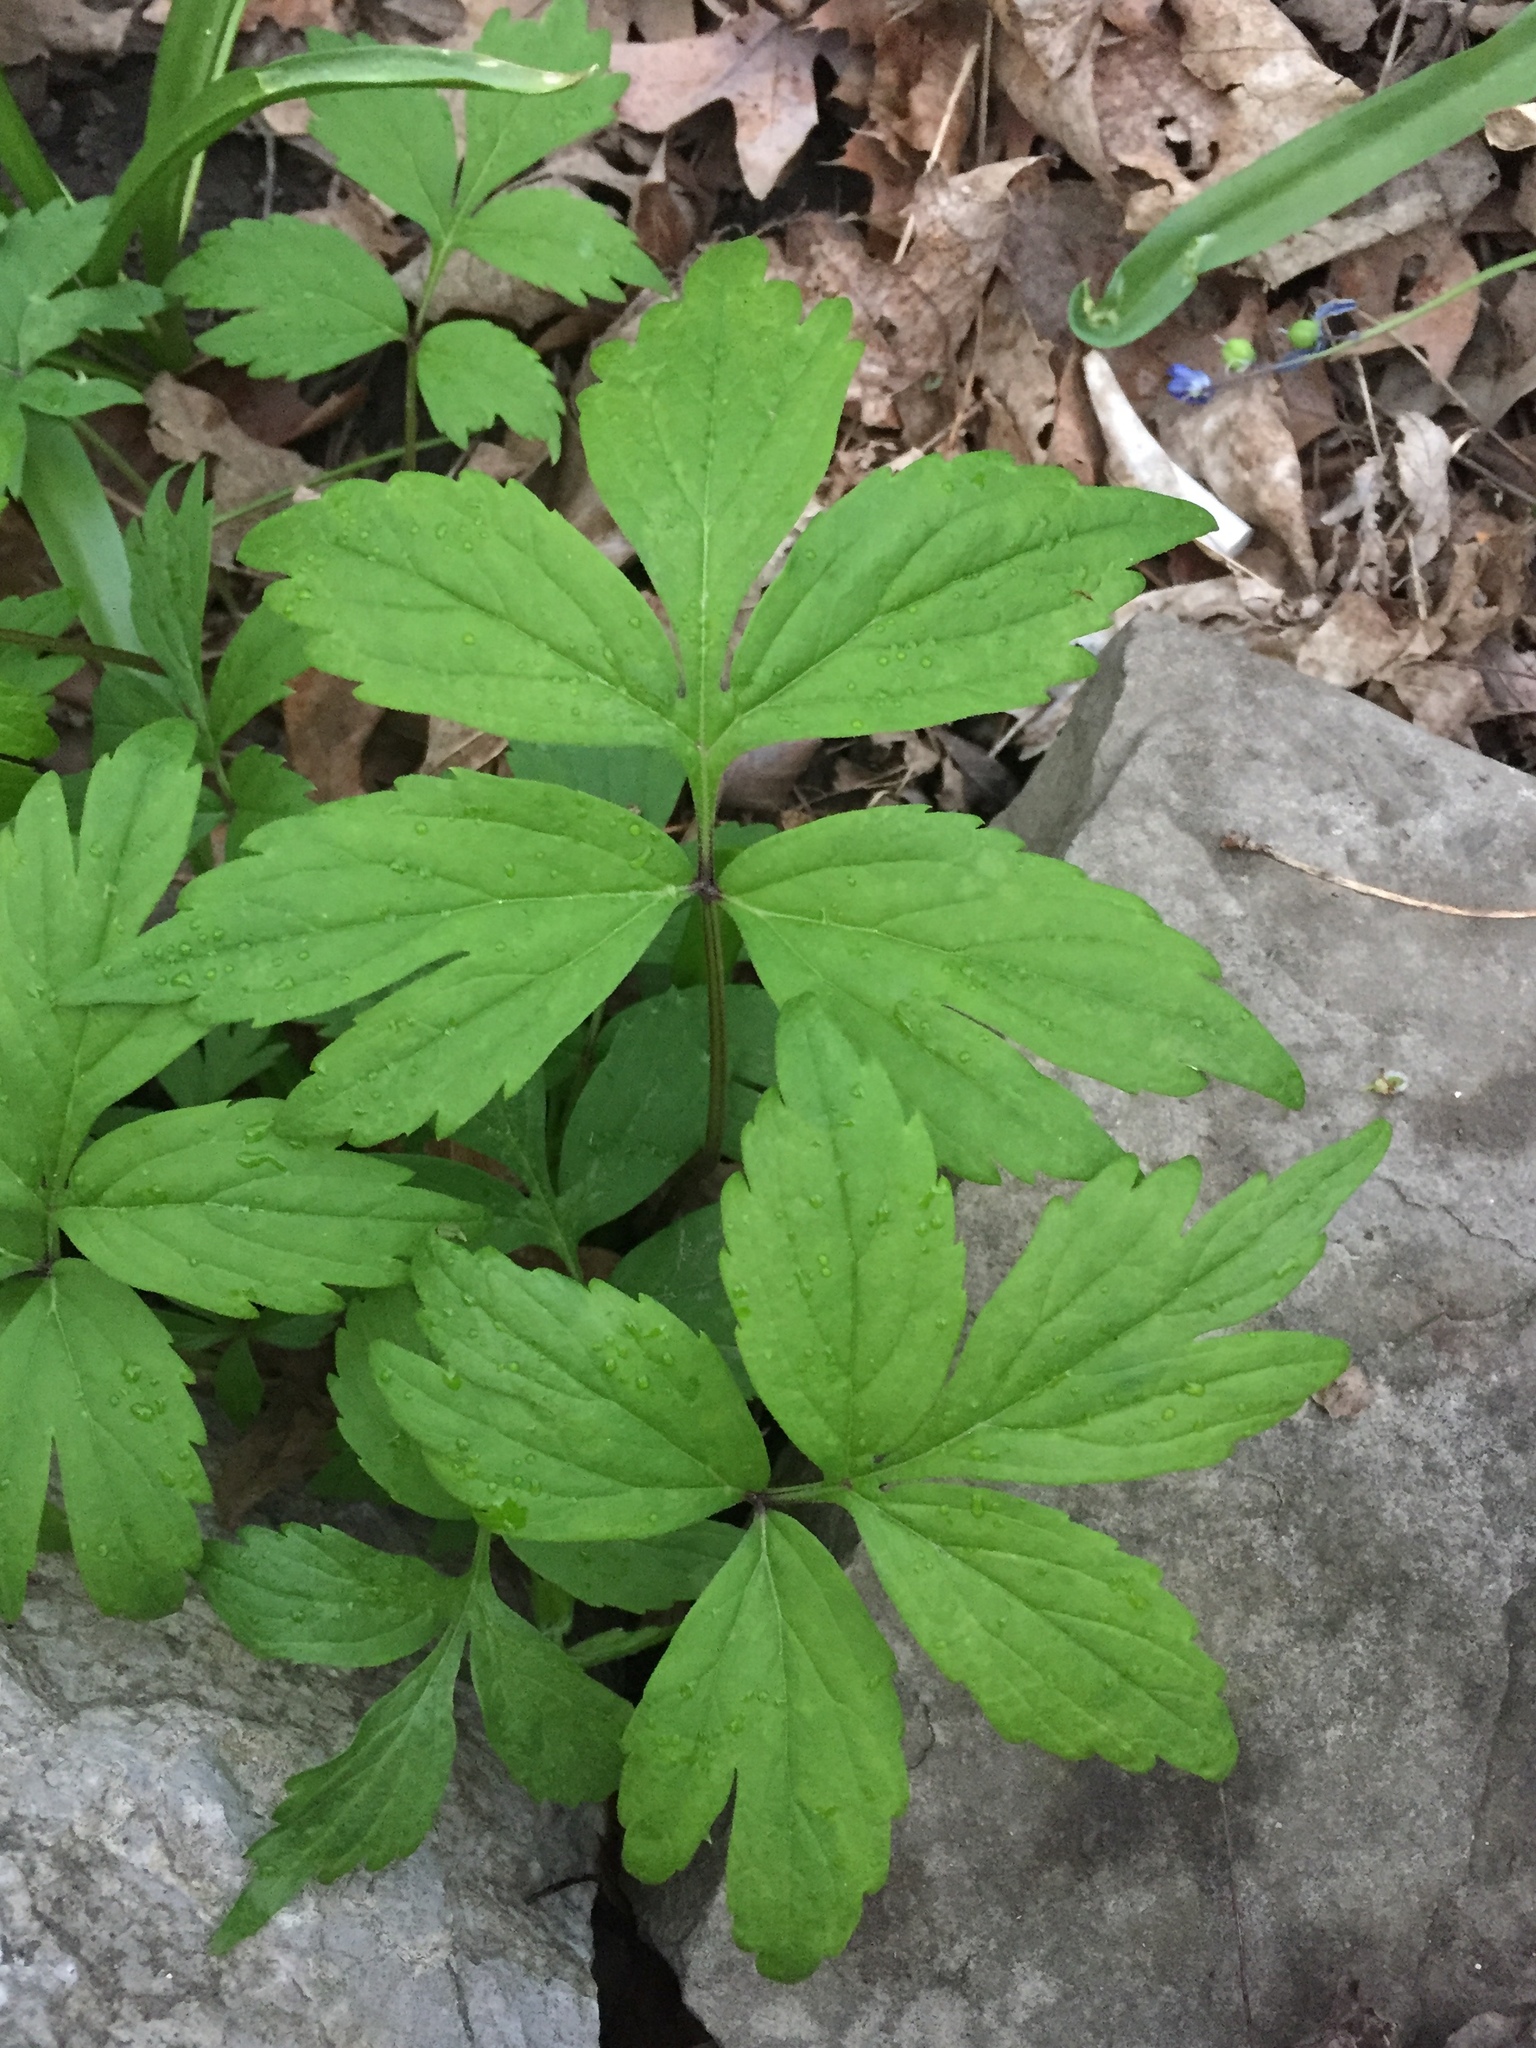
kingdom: Plantae
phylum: Tracheophyta
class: Magnoliopsida
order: Boraginales
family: Hydrophyllaceae
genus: Hydrophyllum
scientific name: Hydrophyllum virginianum
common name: Virginia waterleaf
